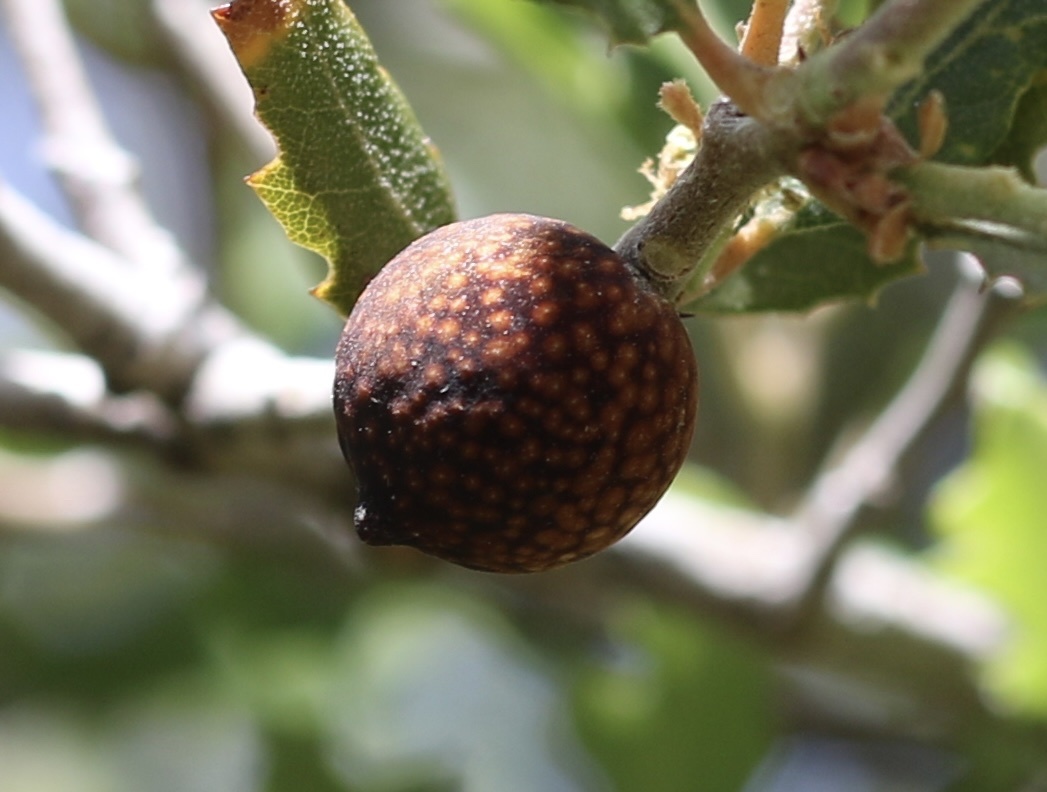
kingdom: Animalia
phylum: Arthropoda
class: Insecta
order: Hymenoptera
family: Cynipidae
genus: Burnettweldia
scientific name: Burnettweldia
